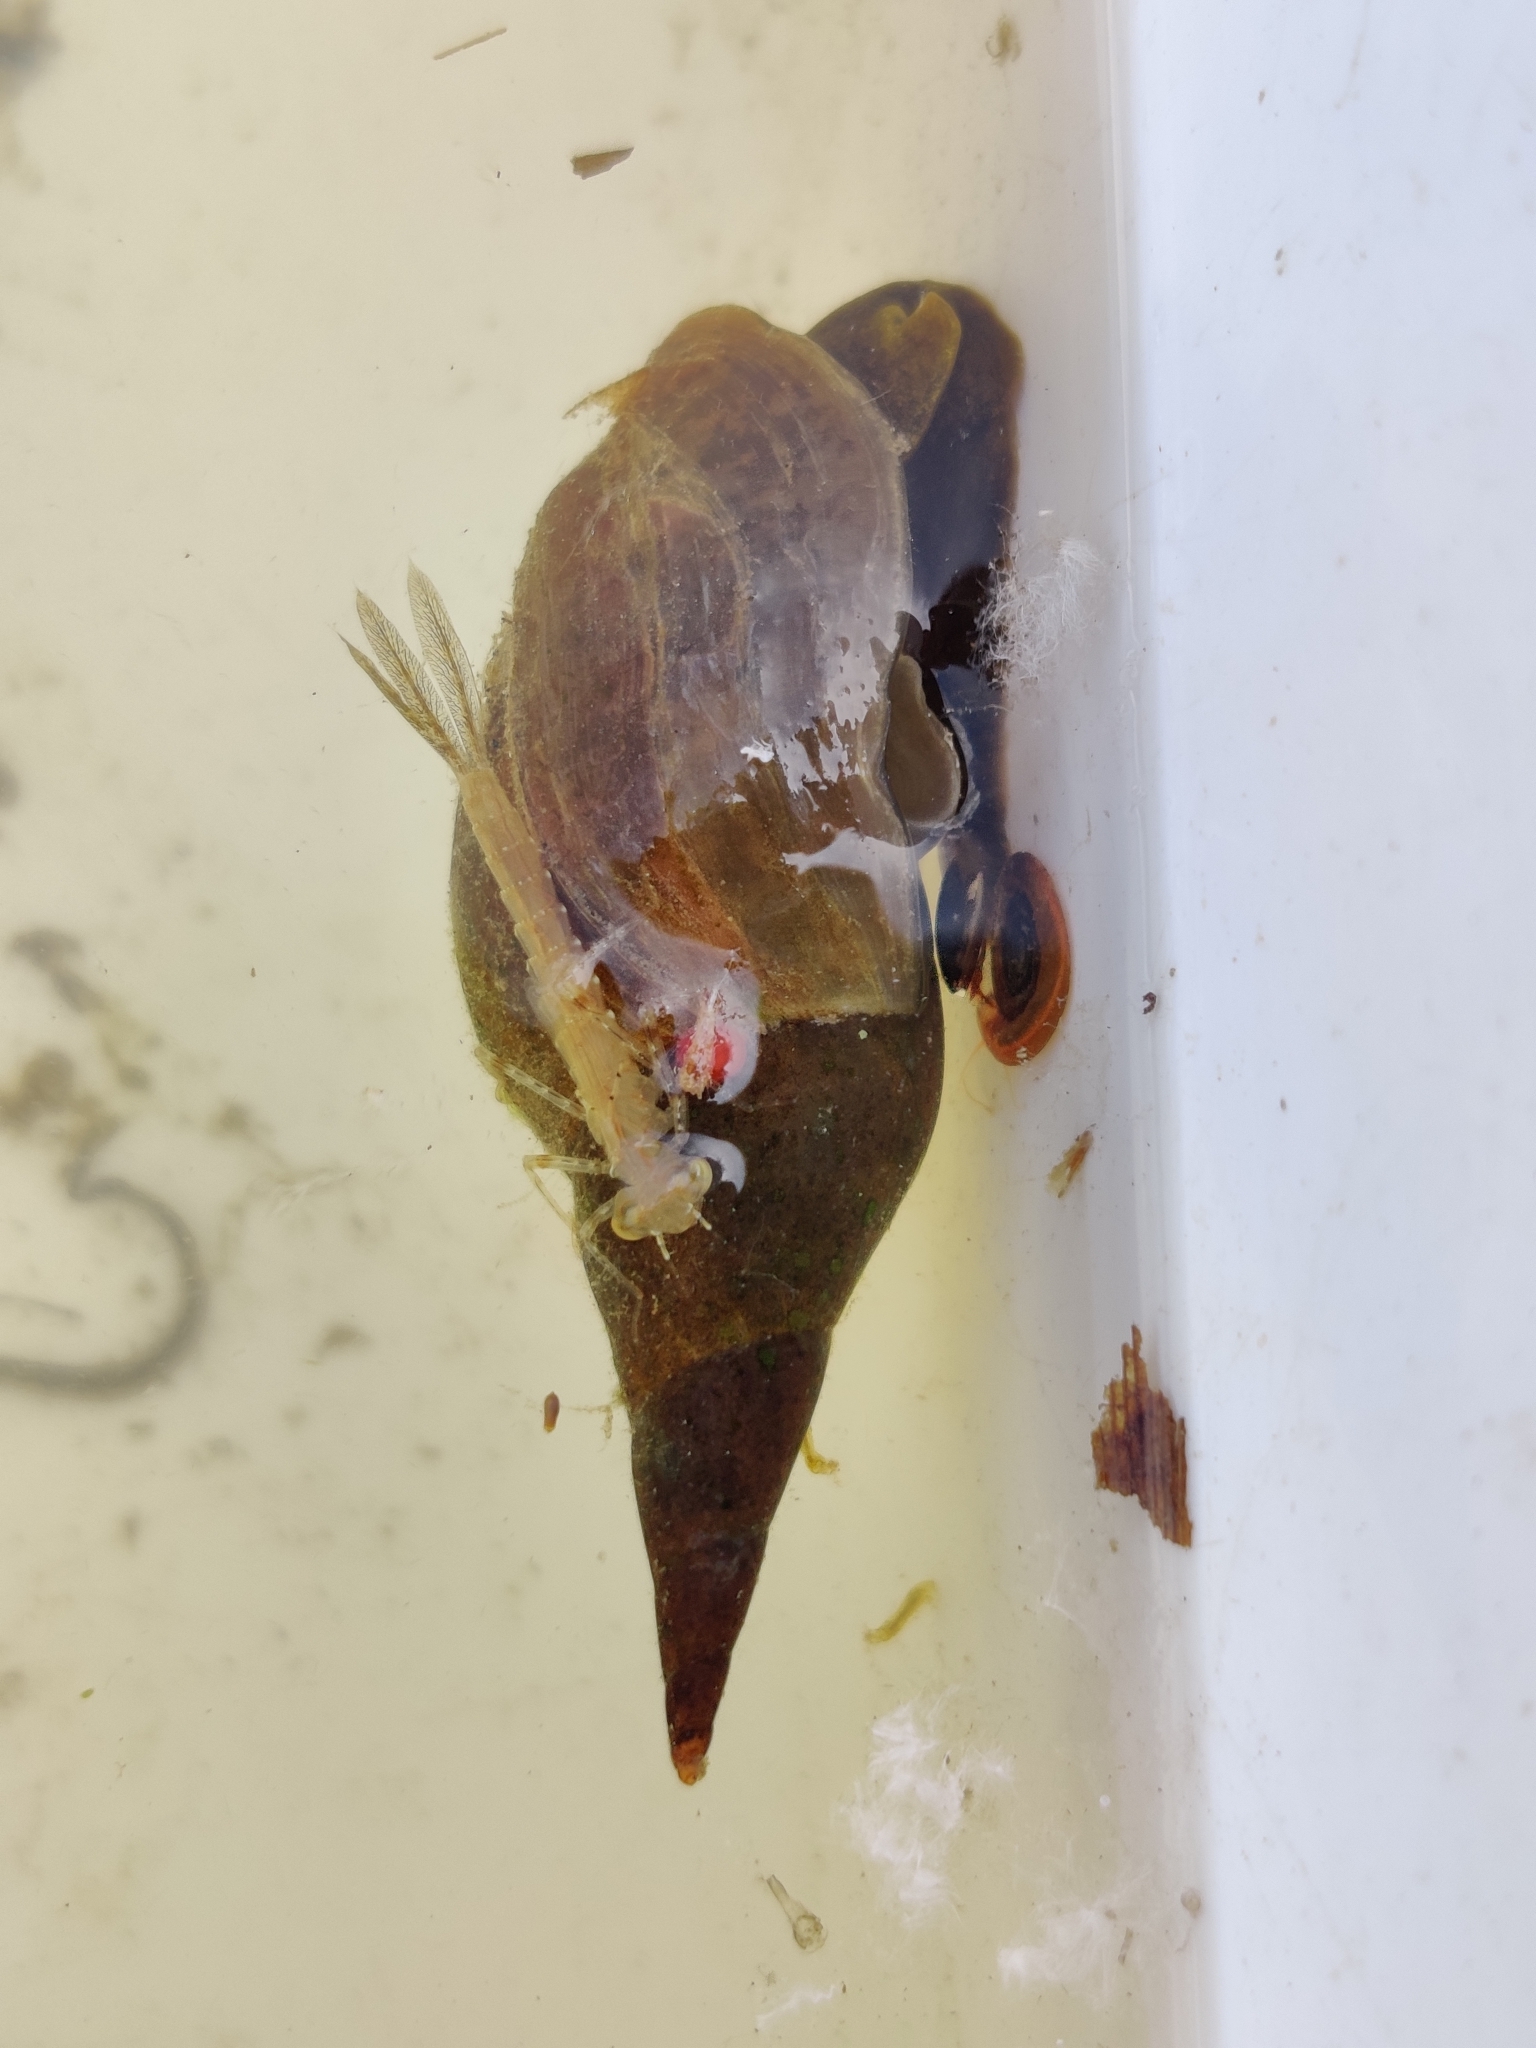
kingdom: Animalia
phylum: Mollusca
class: Gastropoda
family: Lymnaeidae
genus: Lymnaea
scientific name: Lymnaea stagnalis
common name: Great pond snail
